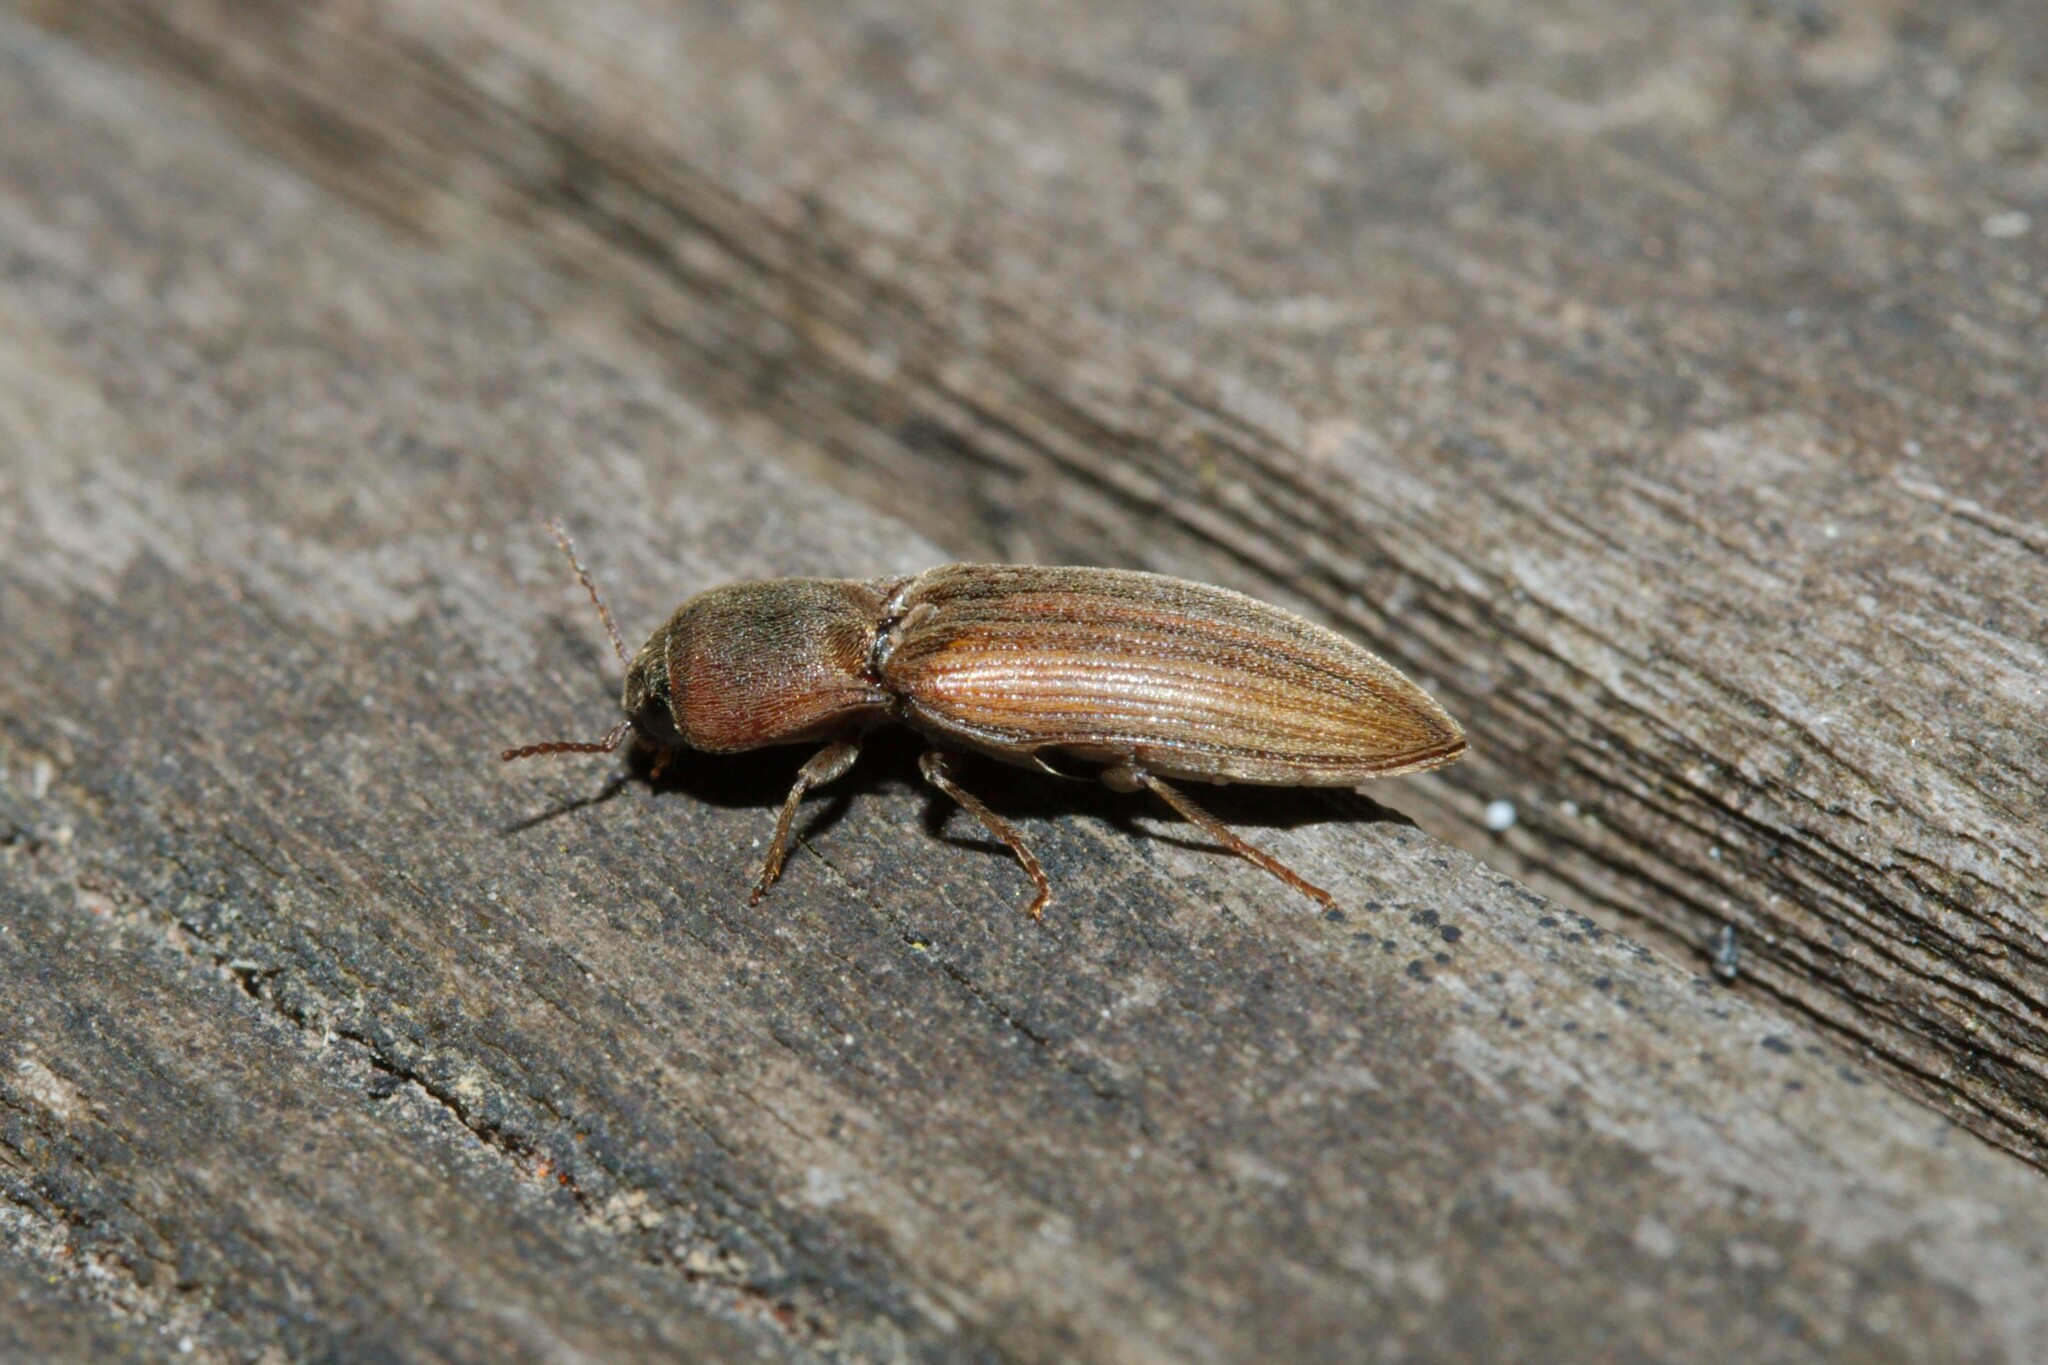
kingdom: Animalia
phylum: Arthropoda
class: Insecta
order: Coleoptera
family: Elateridae
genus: Agriotes
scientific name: Agriotes lineatus
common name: Lined click beetle
